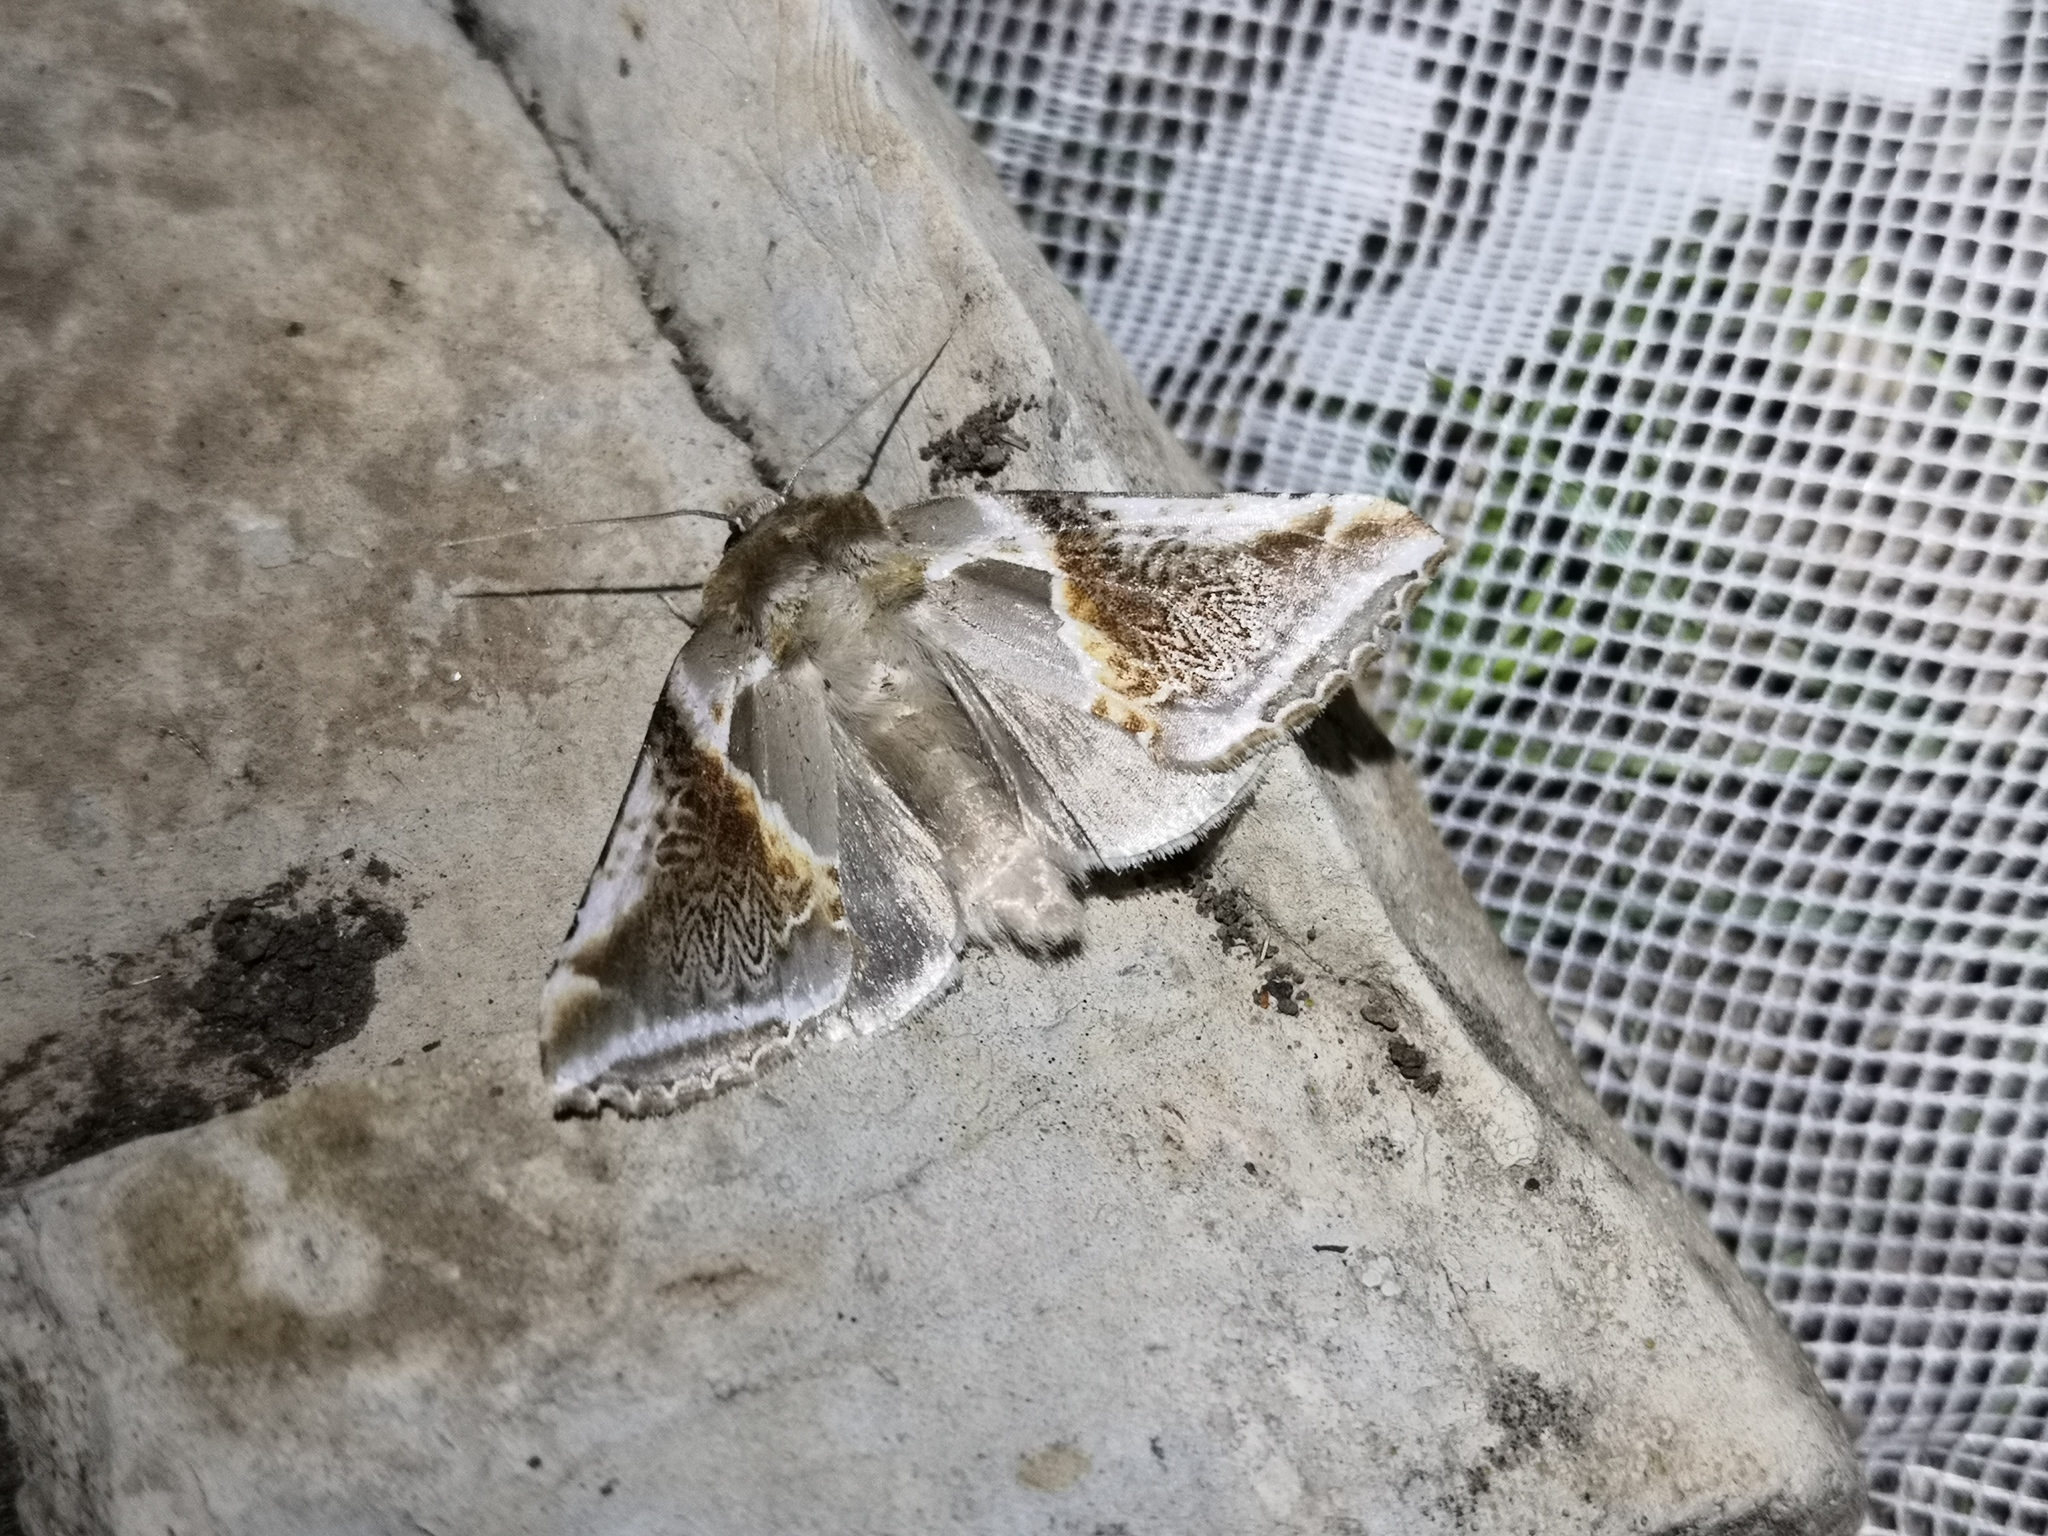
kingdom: Animalia
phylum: Arthropoda
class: Insecta
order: Lepidoptera
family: Drepanidae
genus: Habrosyne
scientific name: Habrosyne pyritoides
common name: Buff arches
